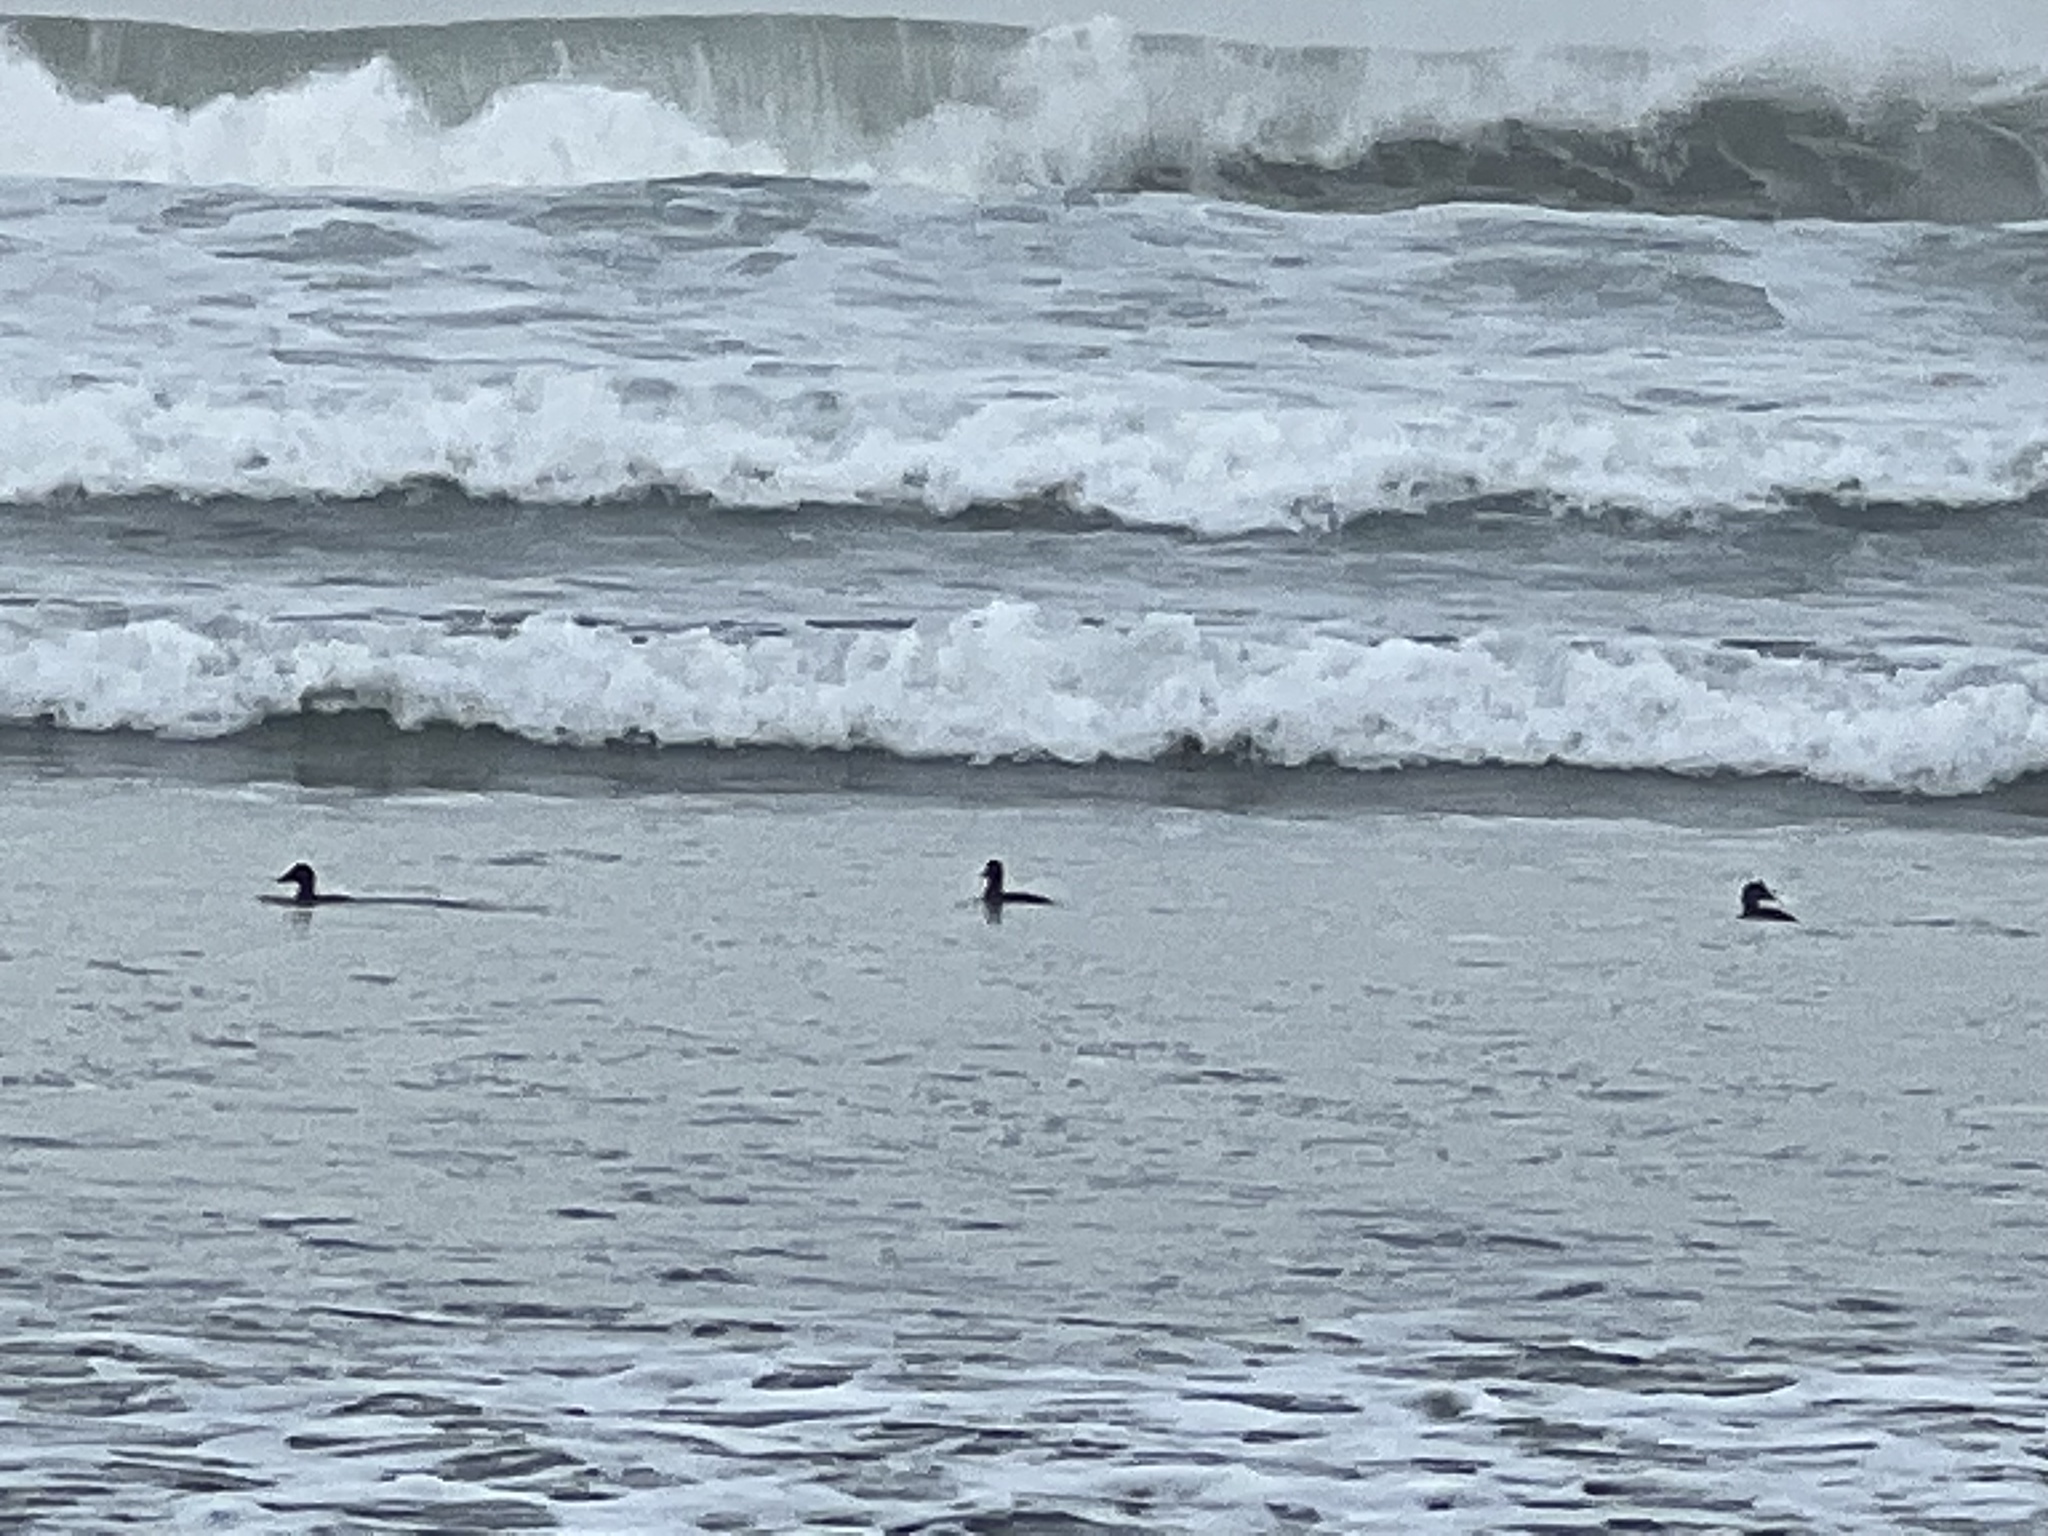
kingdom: Animalia
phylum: Chordata
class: Aves
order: Anseriformes
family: Anatidae
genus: Melanitta
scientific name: Melanitta perspicillata
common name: Surf scoter
